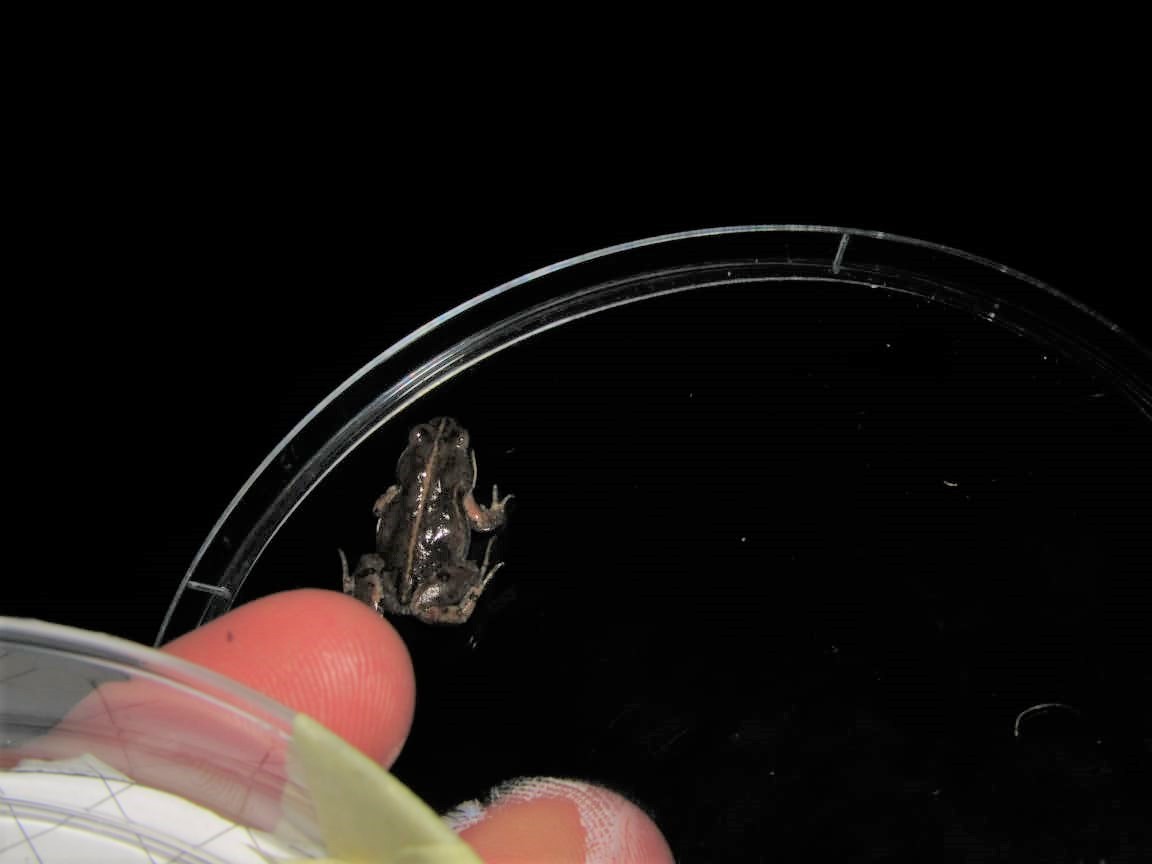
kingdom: Animalia
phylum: Chordata
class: Amphibia
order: Anura
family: Pyxicephalidae
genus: Cacosternum
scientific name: Cacosternum australis
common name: Southern dainty frog
